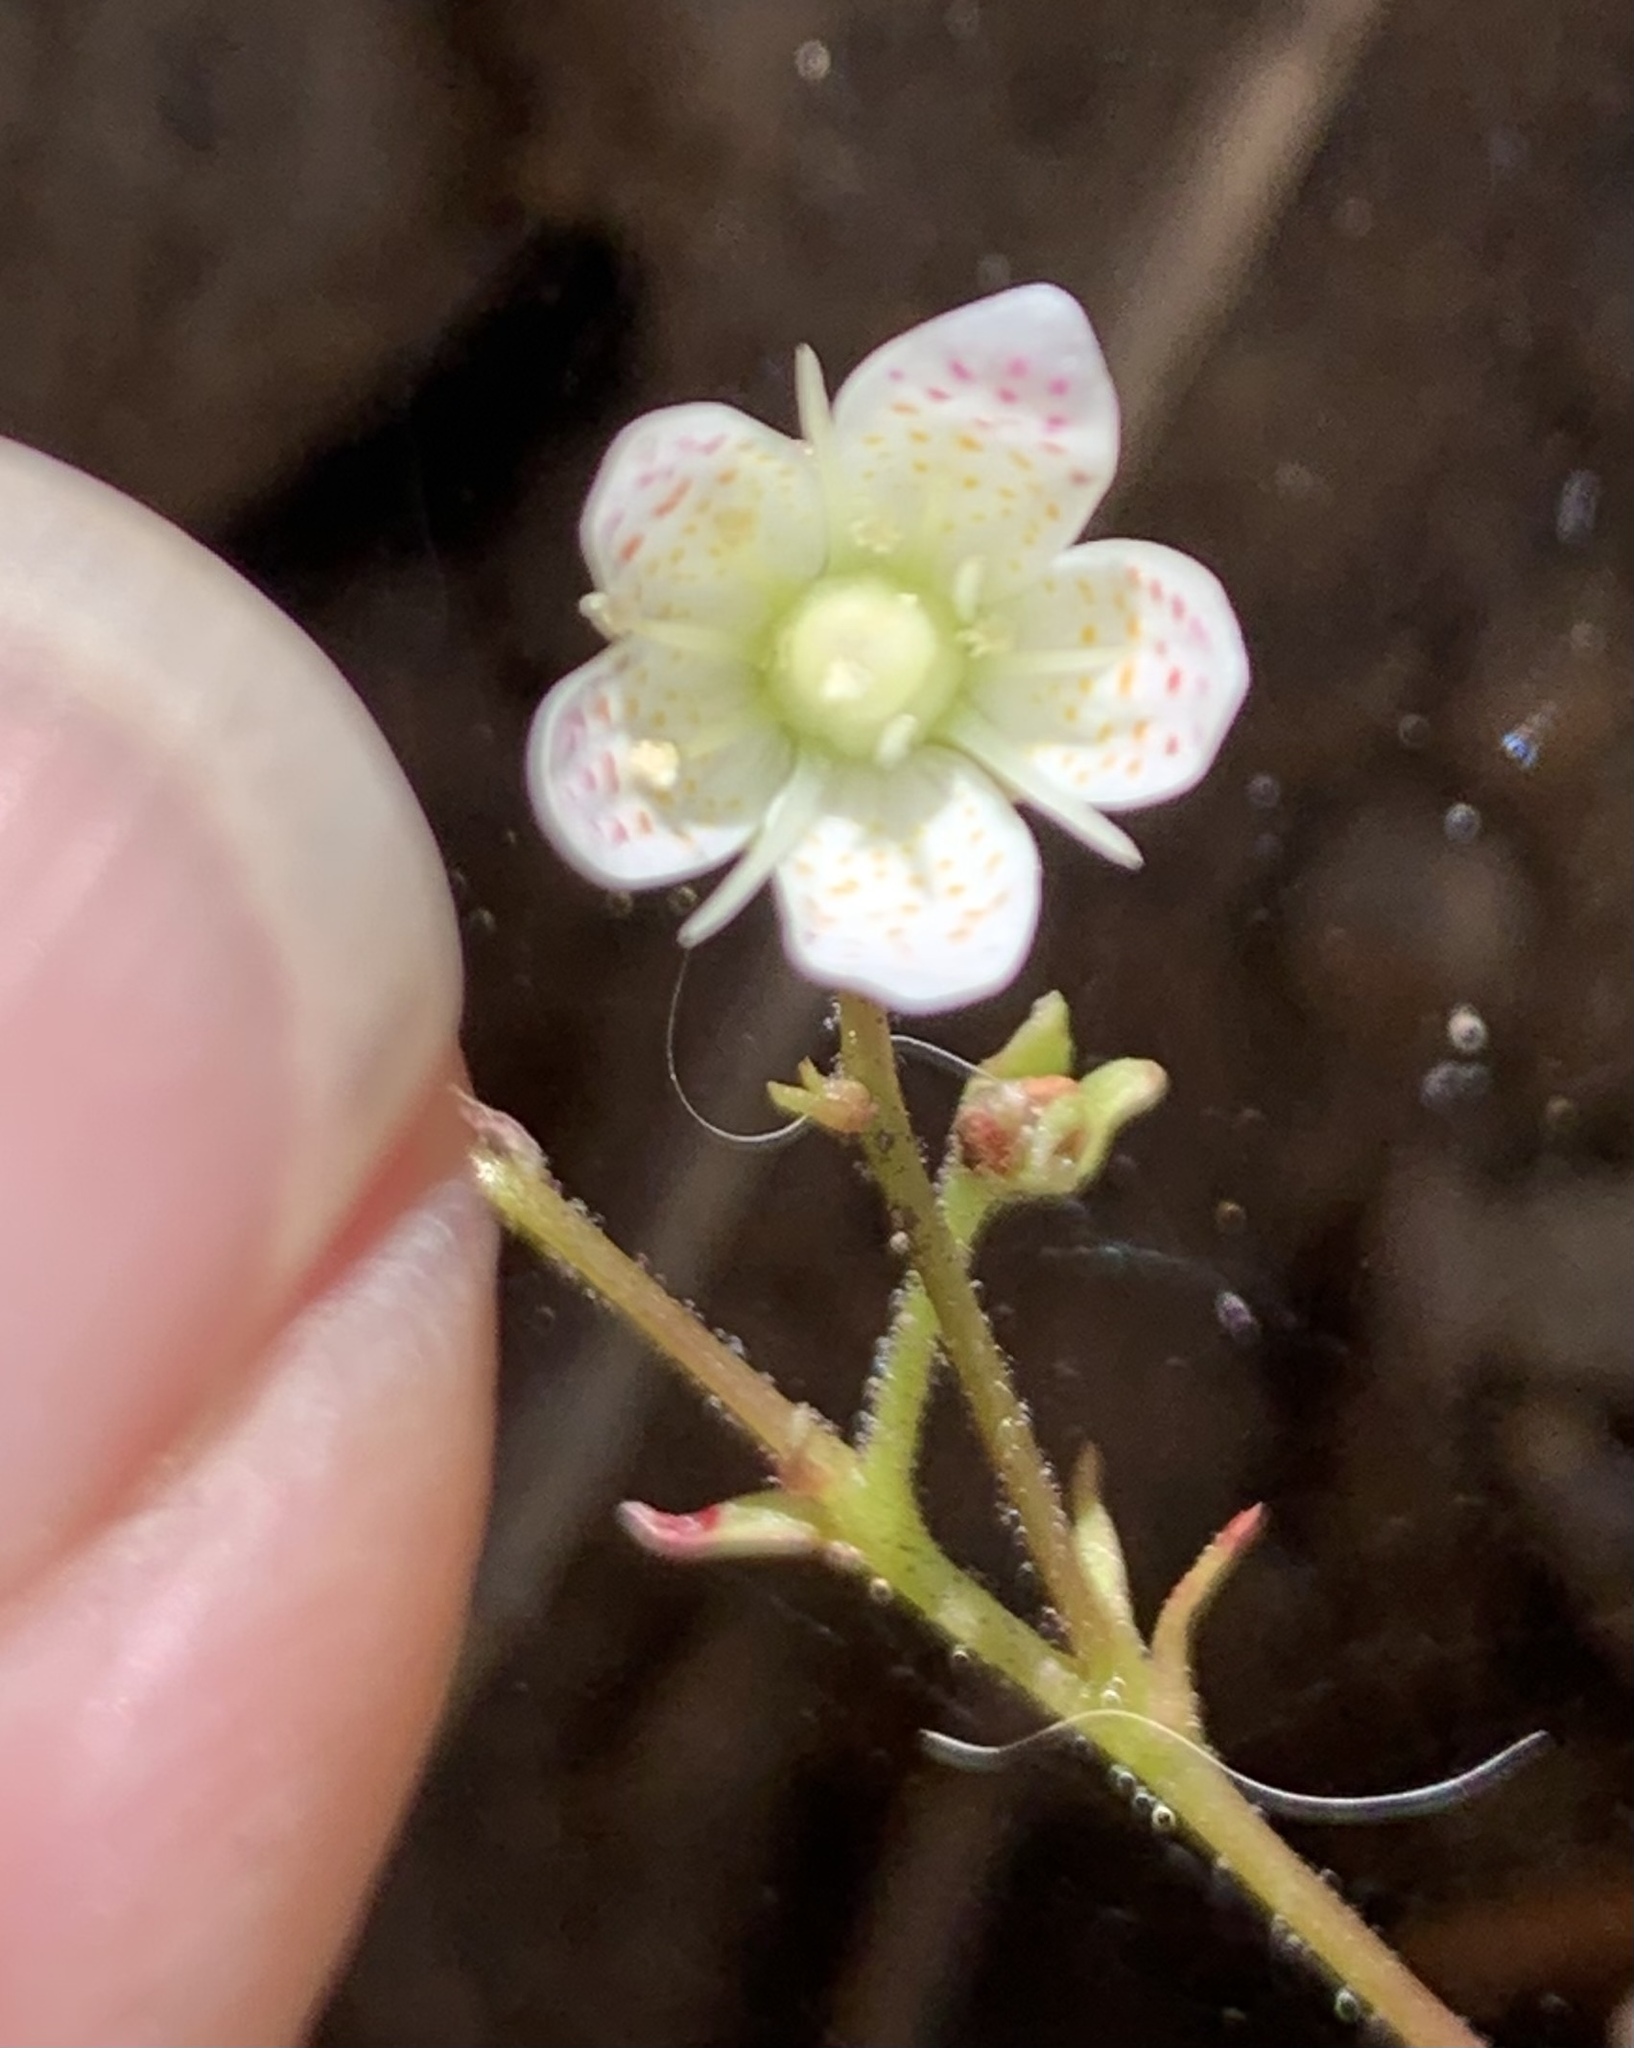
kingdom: Plantae
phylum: Tracheophyta
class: Magnoliopsida
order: Saxifragales
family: Saxifragaceae
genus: Saxifraga
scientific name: Saxifraga bronchialis
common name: Matted saxifrage
